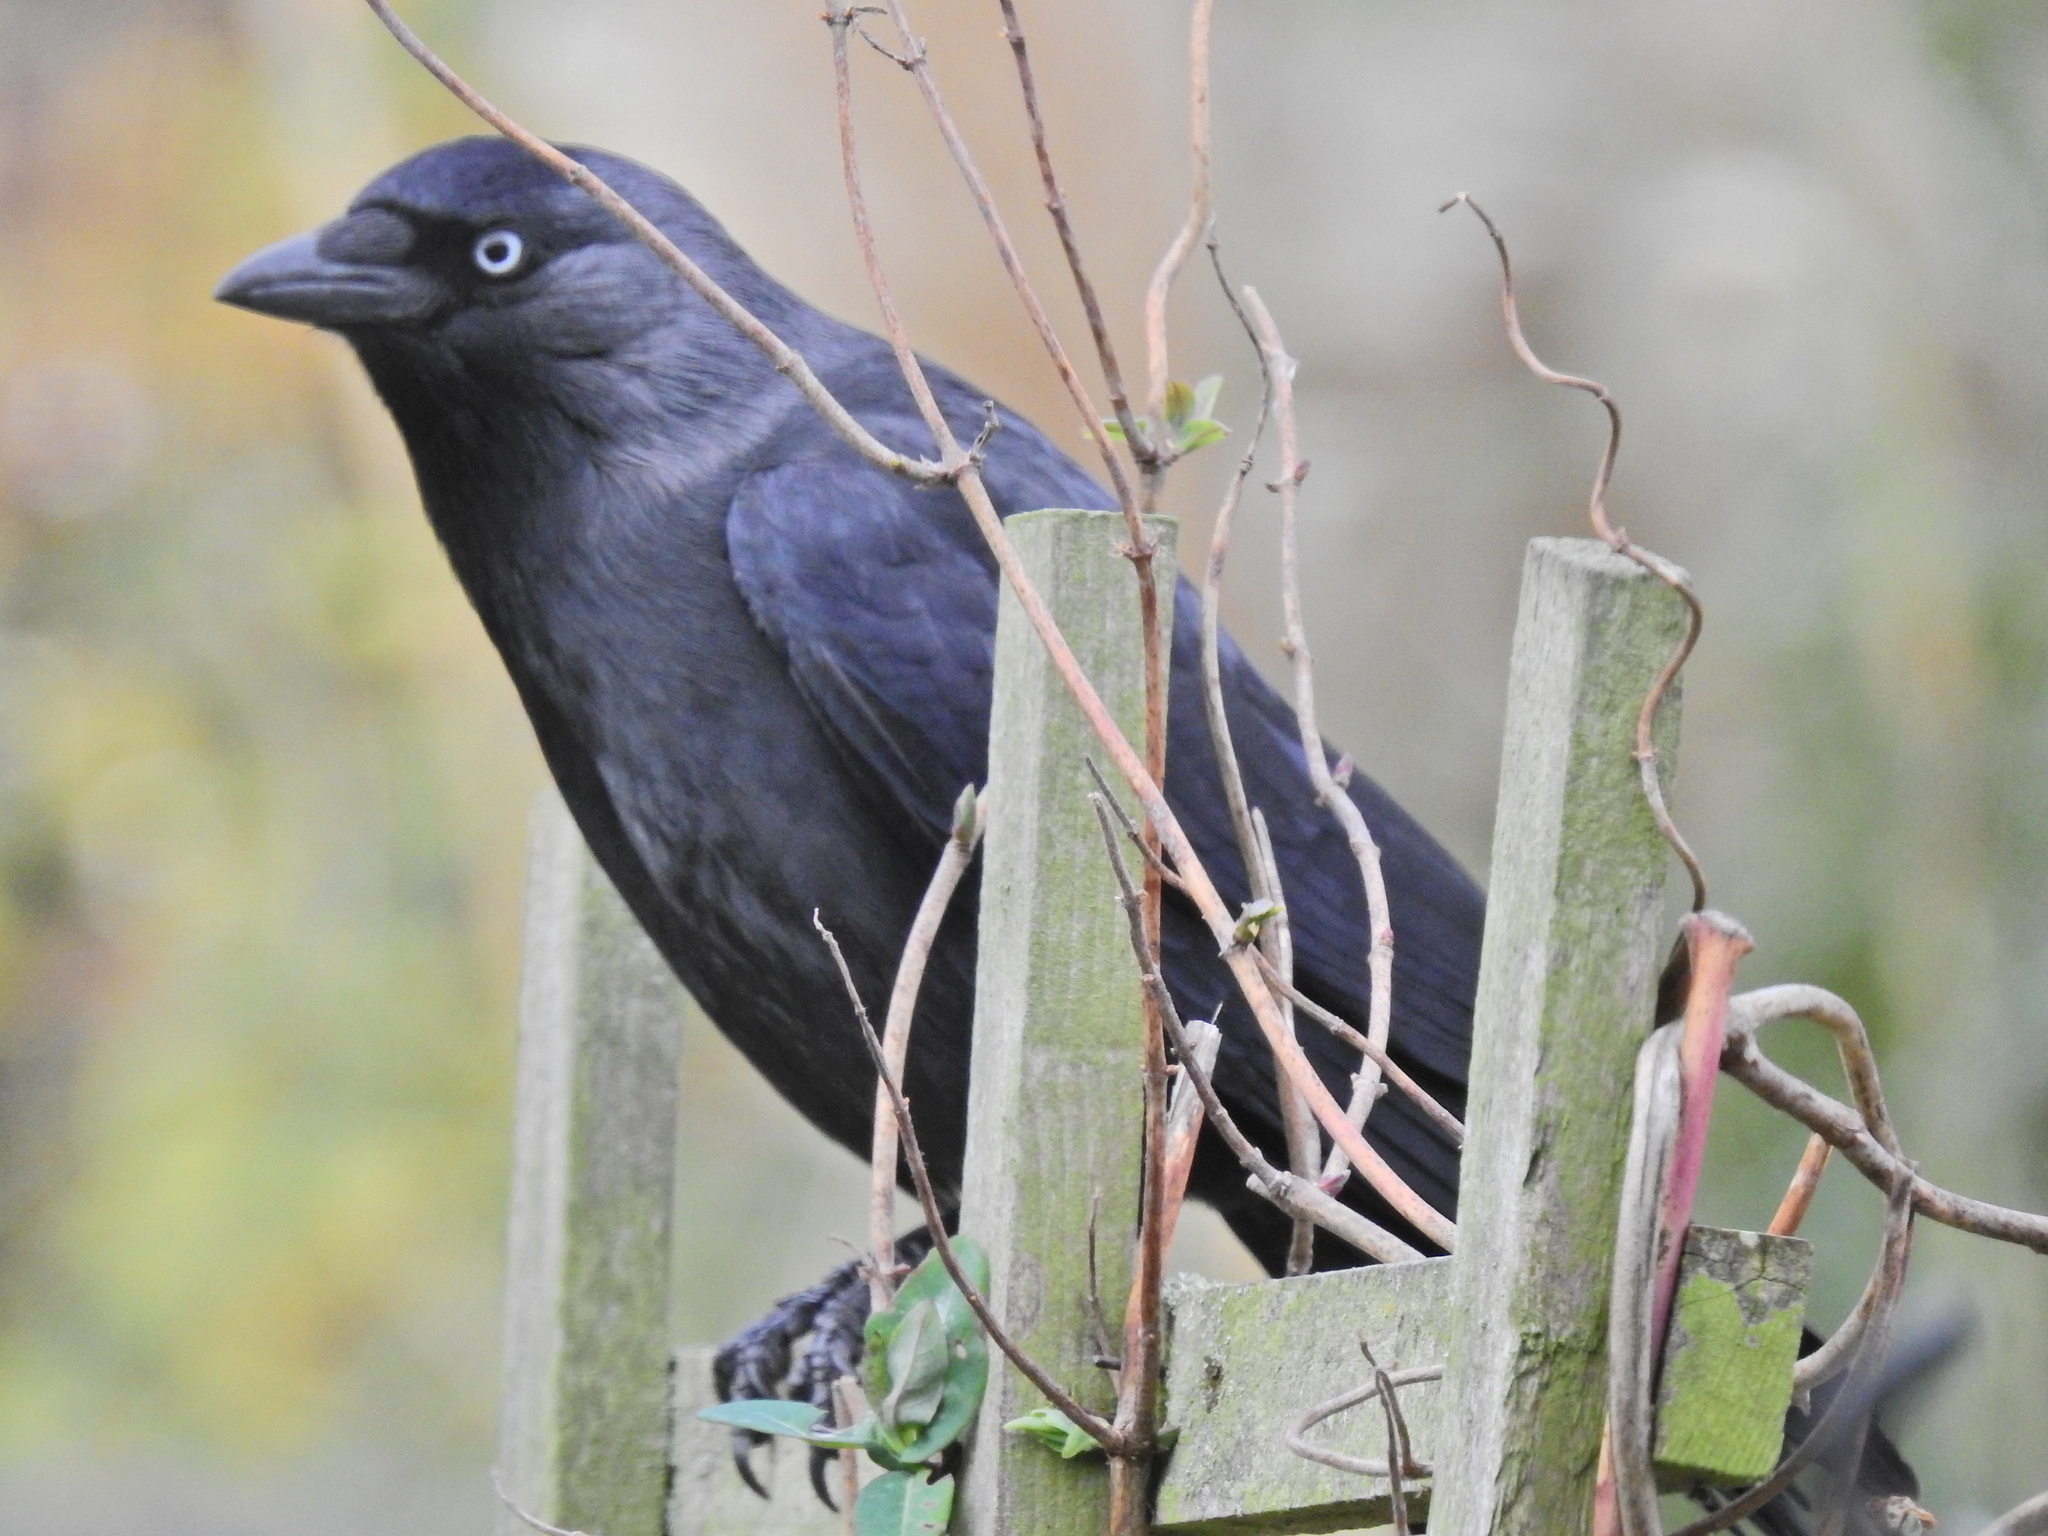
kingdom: Animalia
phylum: Chordata
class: Aves
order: Passeriformes
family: Corvidae
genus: Coloeus
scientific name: Coloeus monedula
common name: Western jackdaw
